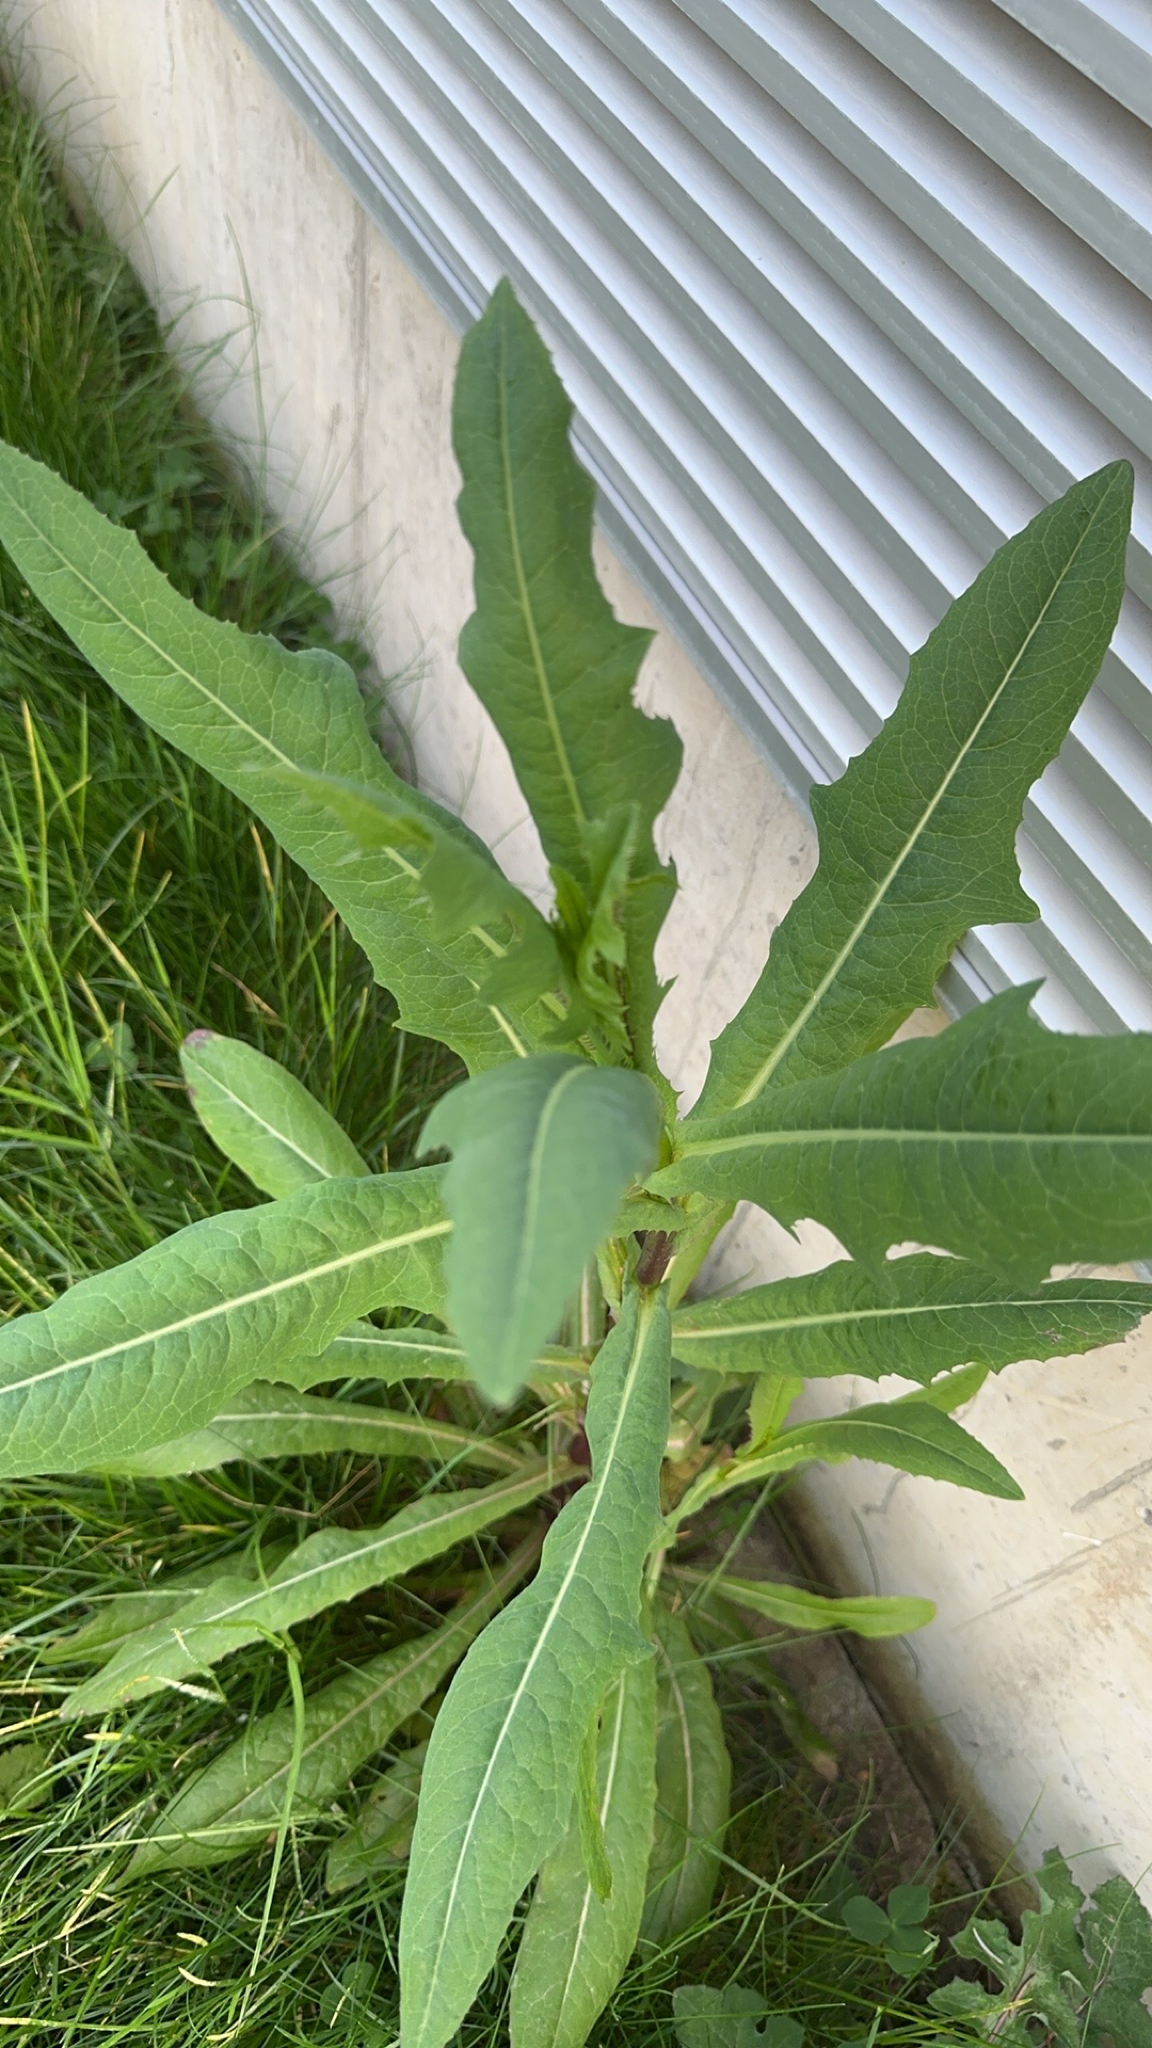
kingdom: Plantae
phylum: Tracheophyta
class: Magnoliopsida
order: Asterales
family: Asteraceae
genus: Lactuca
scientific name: Lactuca serriola
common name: Prickly lettuce
